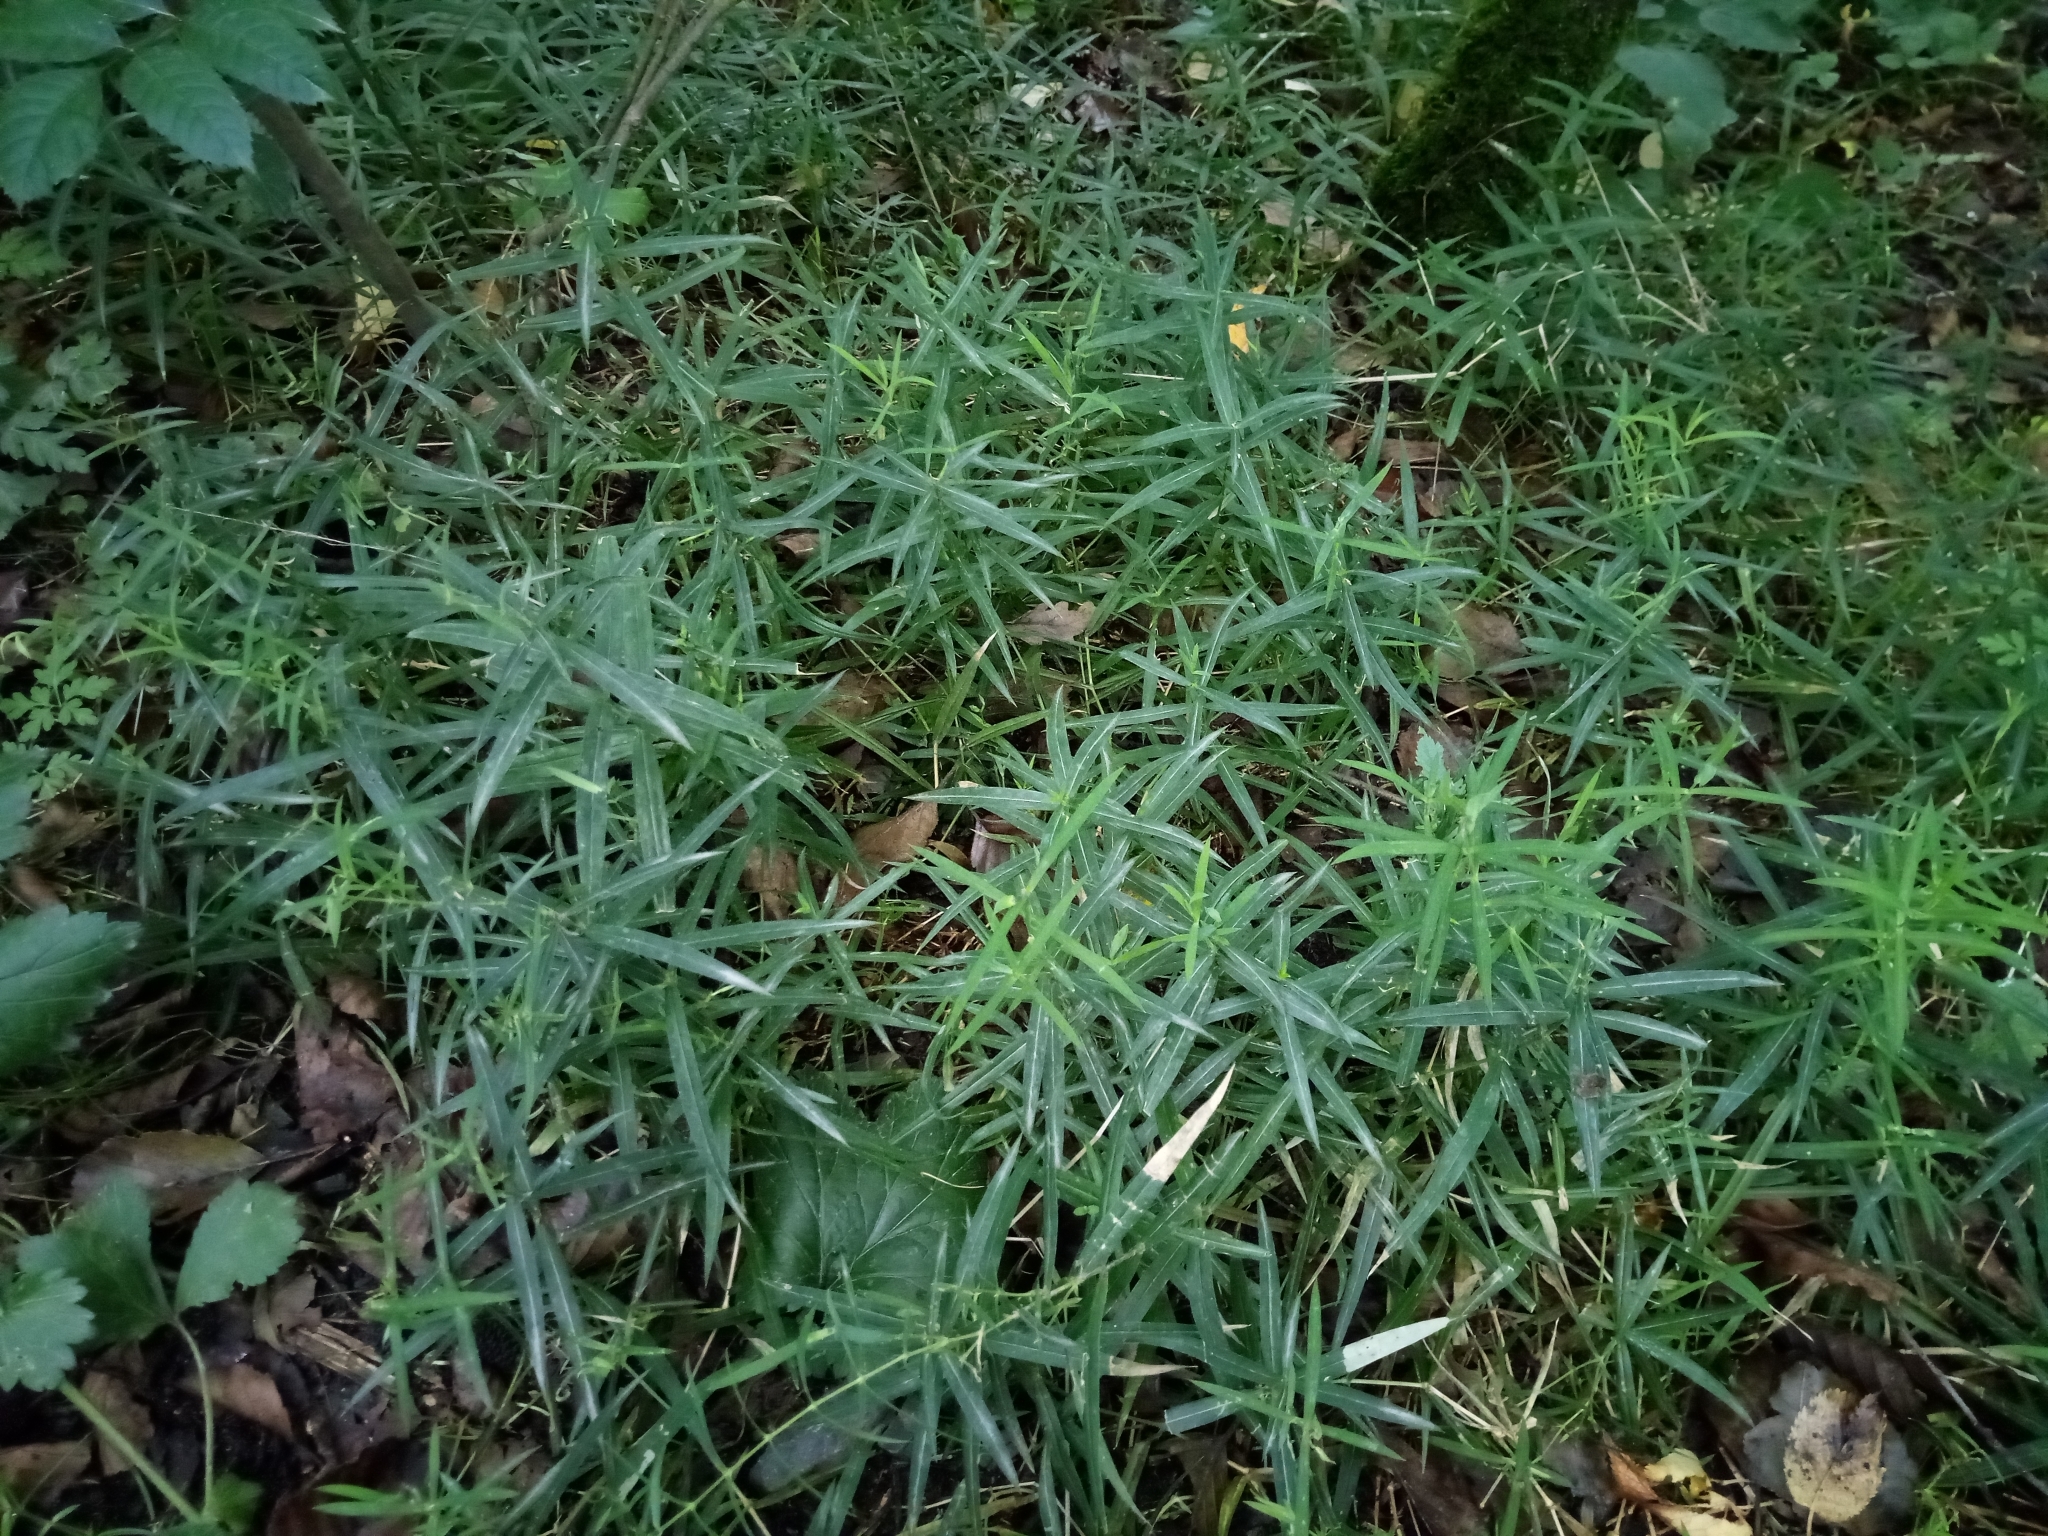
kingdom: Plantae
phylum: Tracheophyta
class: Magnoliopsida
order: Caryophyllales
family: Caryophyllaceae
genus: Rabelera
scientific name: Rabelera holostea
